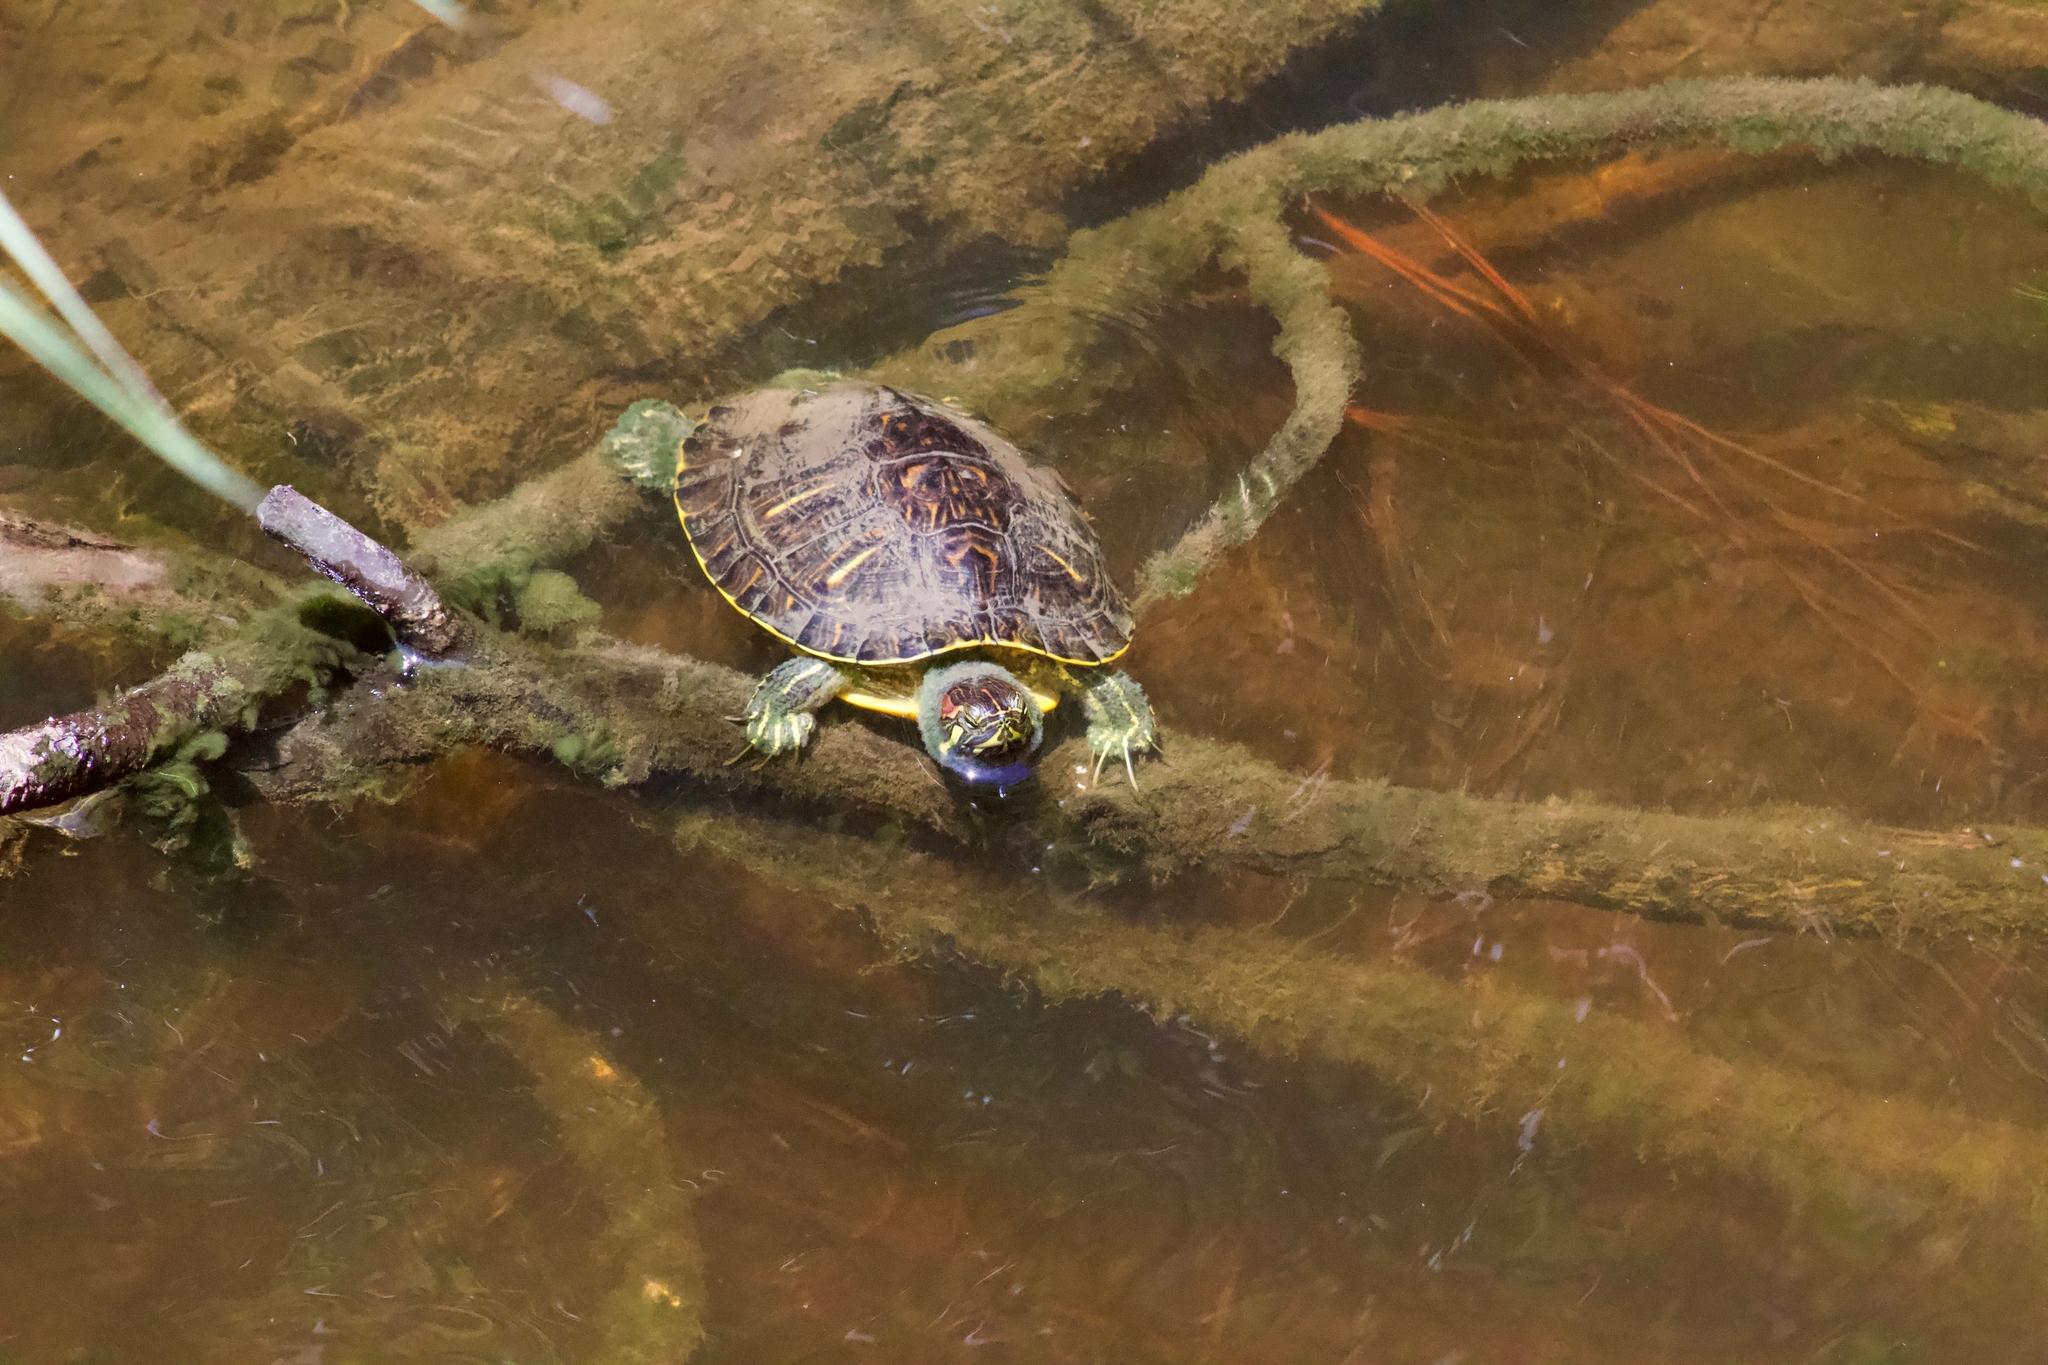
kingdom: Animalia
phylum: Chordata
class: Testudines
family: Emydidae
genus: Trachemys
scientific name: Trachemys scripta
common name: Slider
